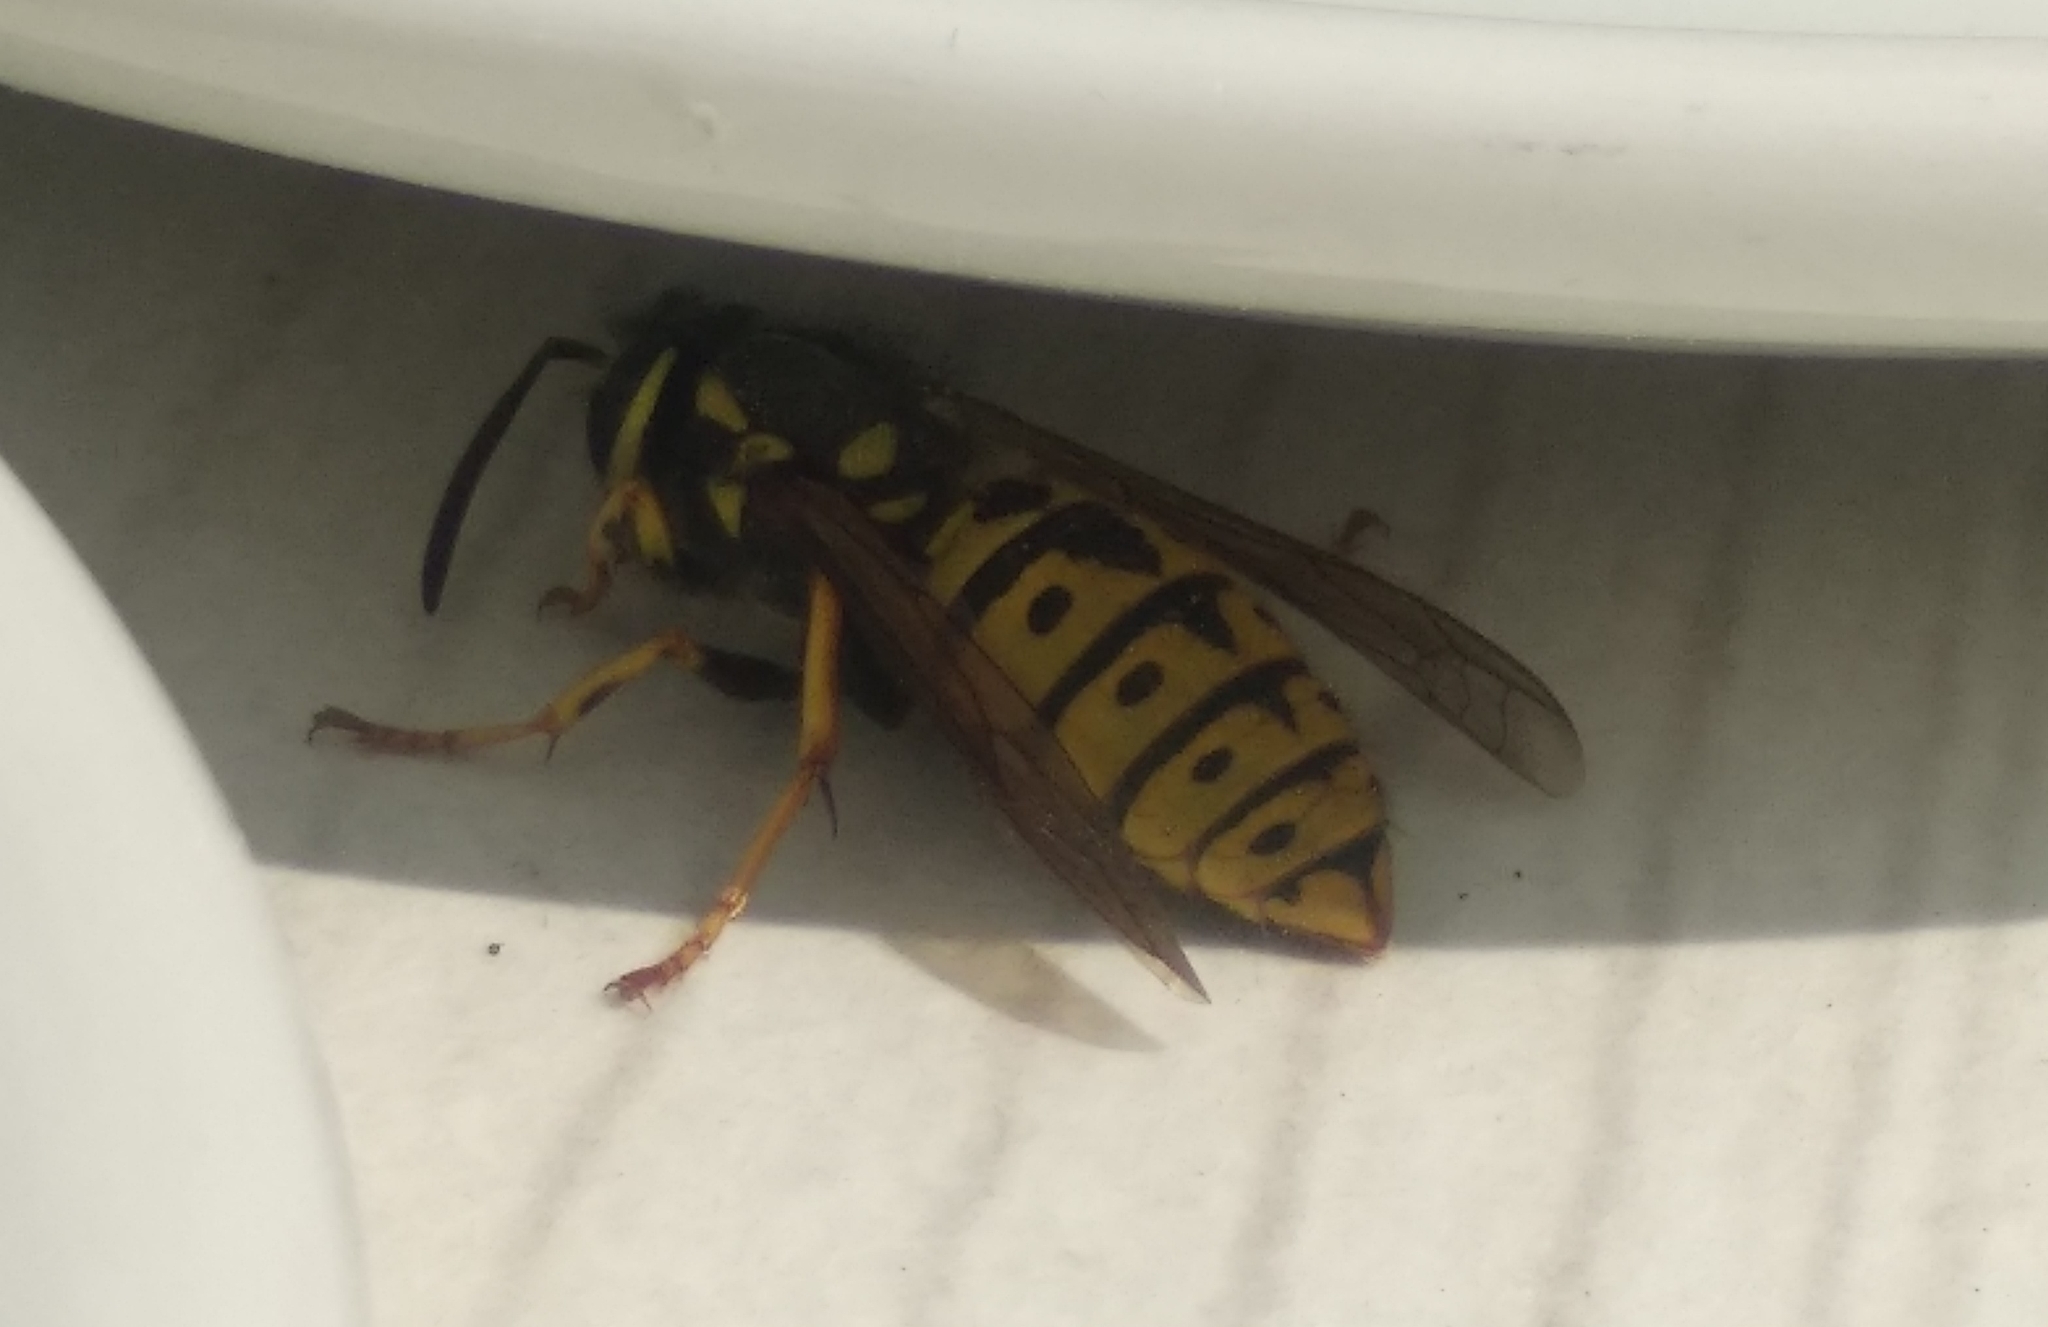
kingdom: Animalia
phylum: Arthropoda
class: Insecta
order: Hymenoptera
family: Vespidae
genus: Vespula
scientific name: Vespula germanica
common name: German wasp
